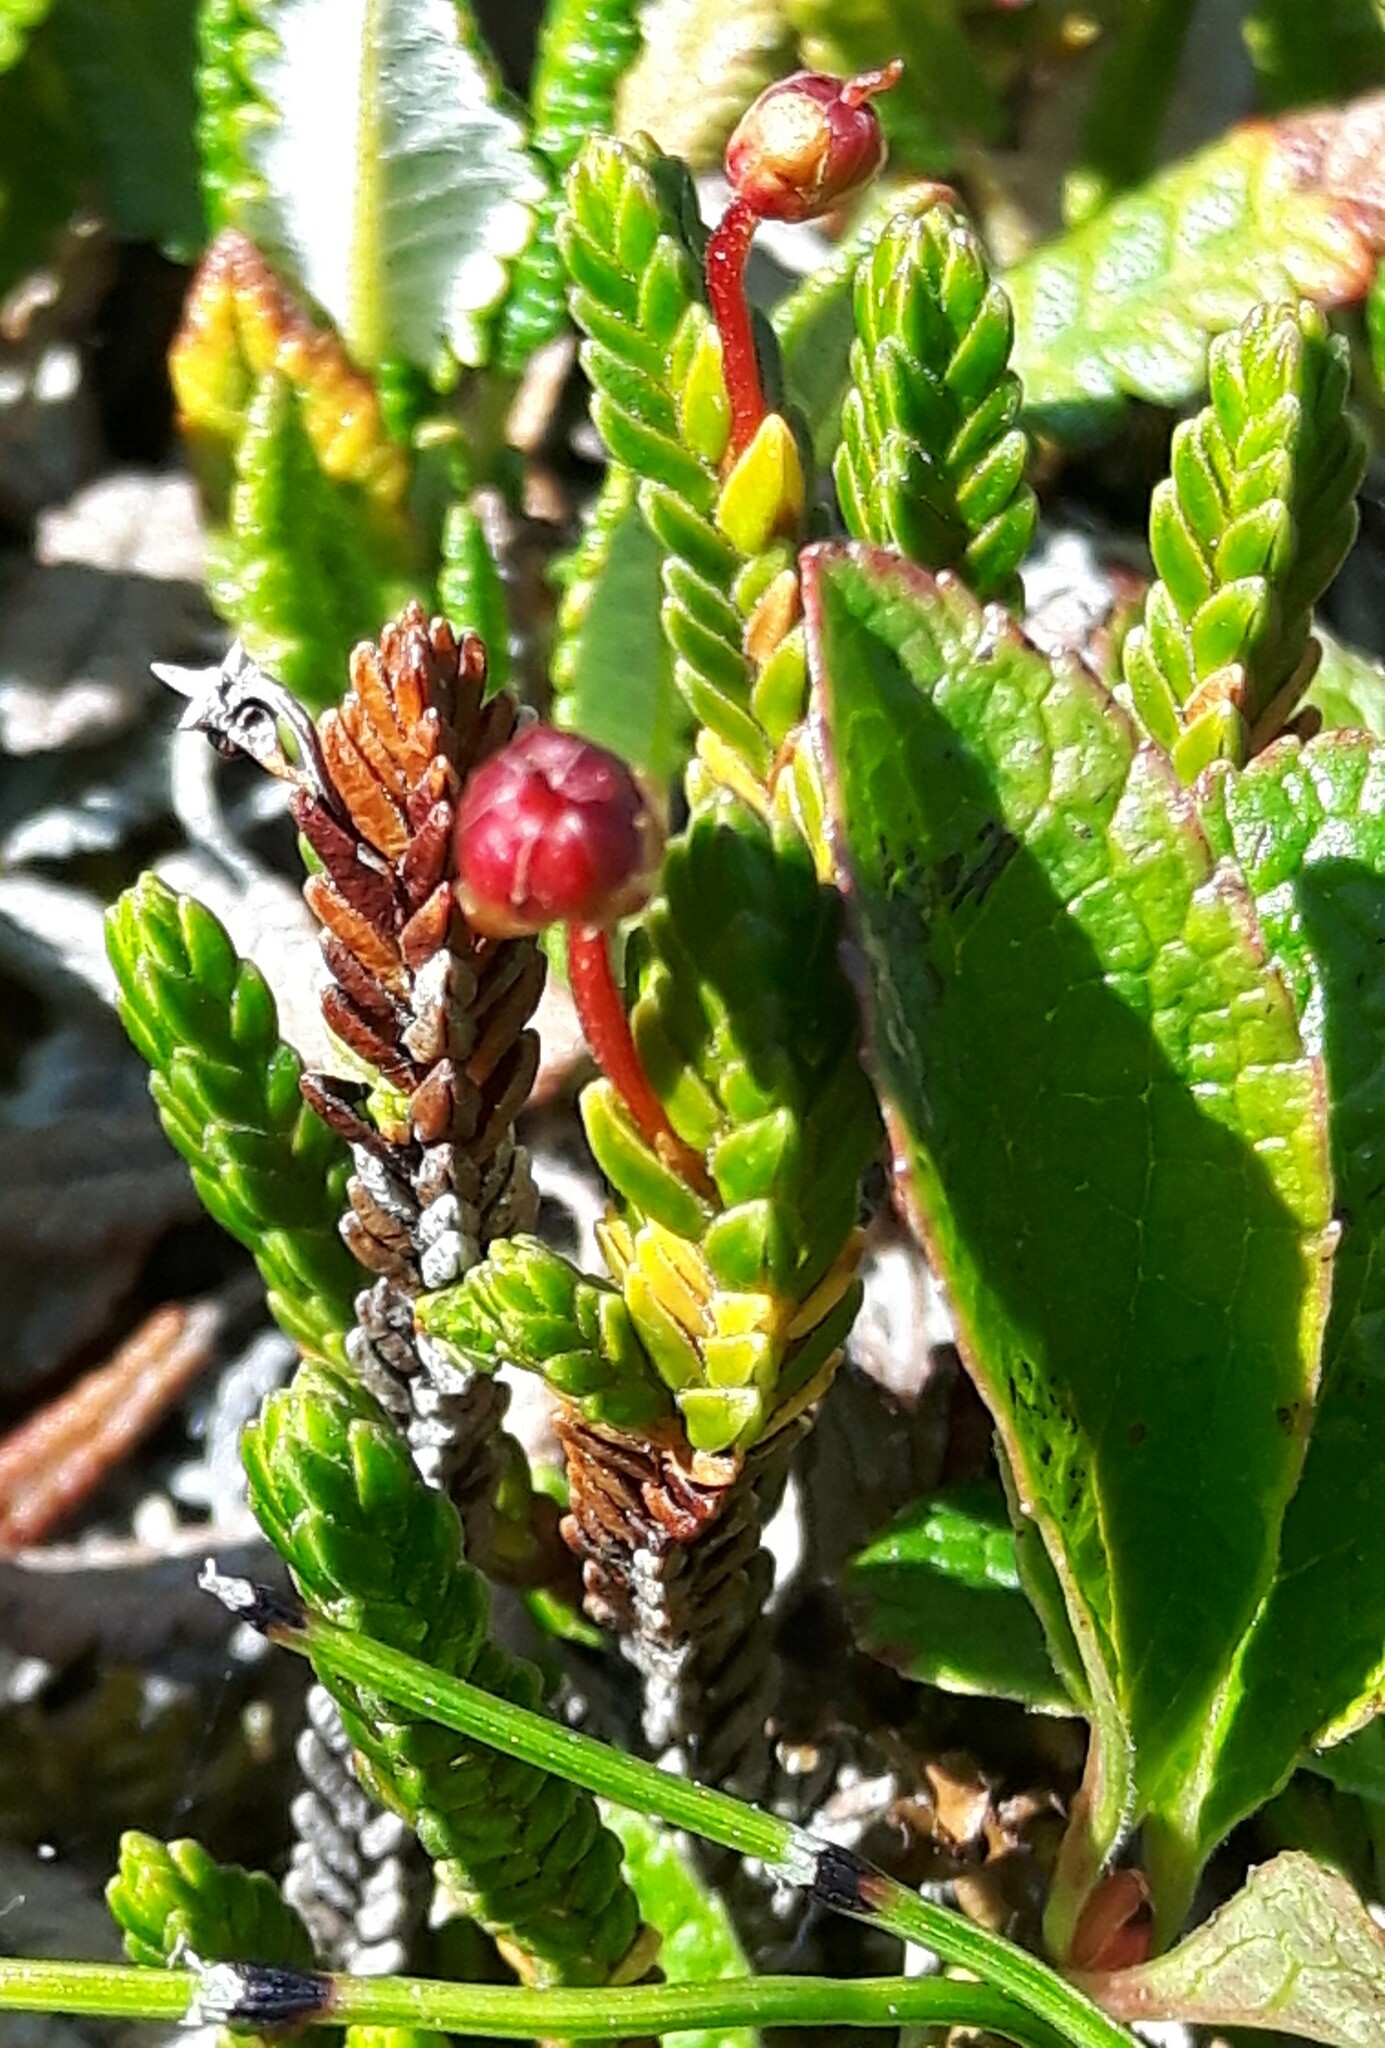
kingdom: Plantae
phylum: Tracheophyta
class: Magnoliopsida
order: Ericales
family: Ericaceae
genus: Cassiope
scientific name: Cassiope tetragona
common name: Arctic bell heather
